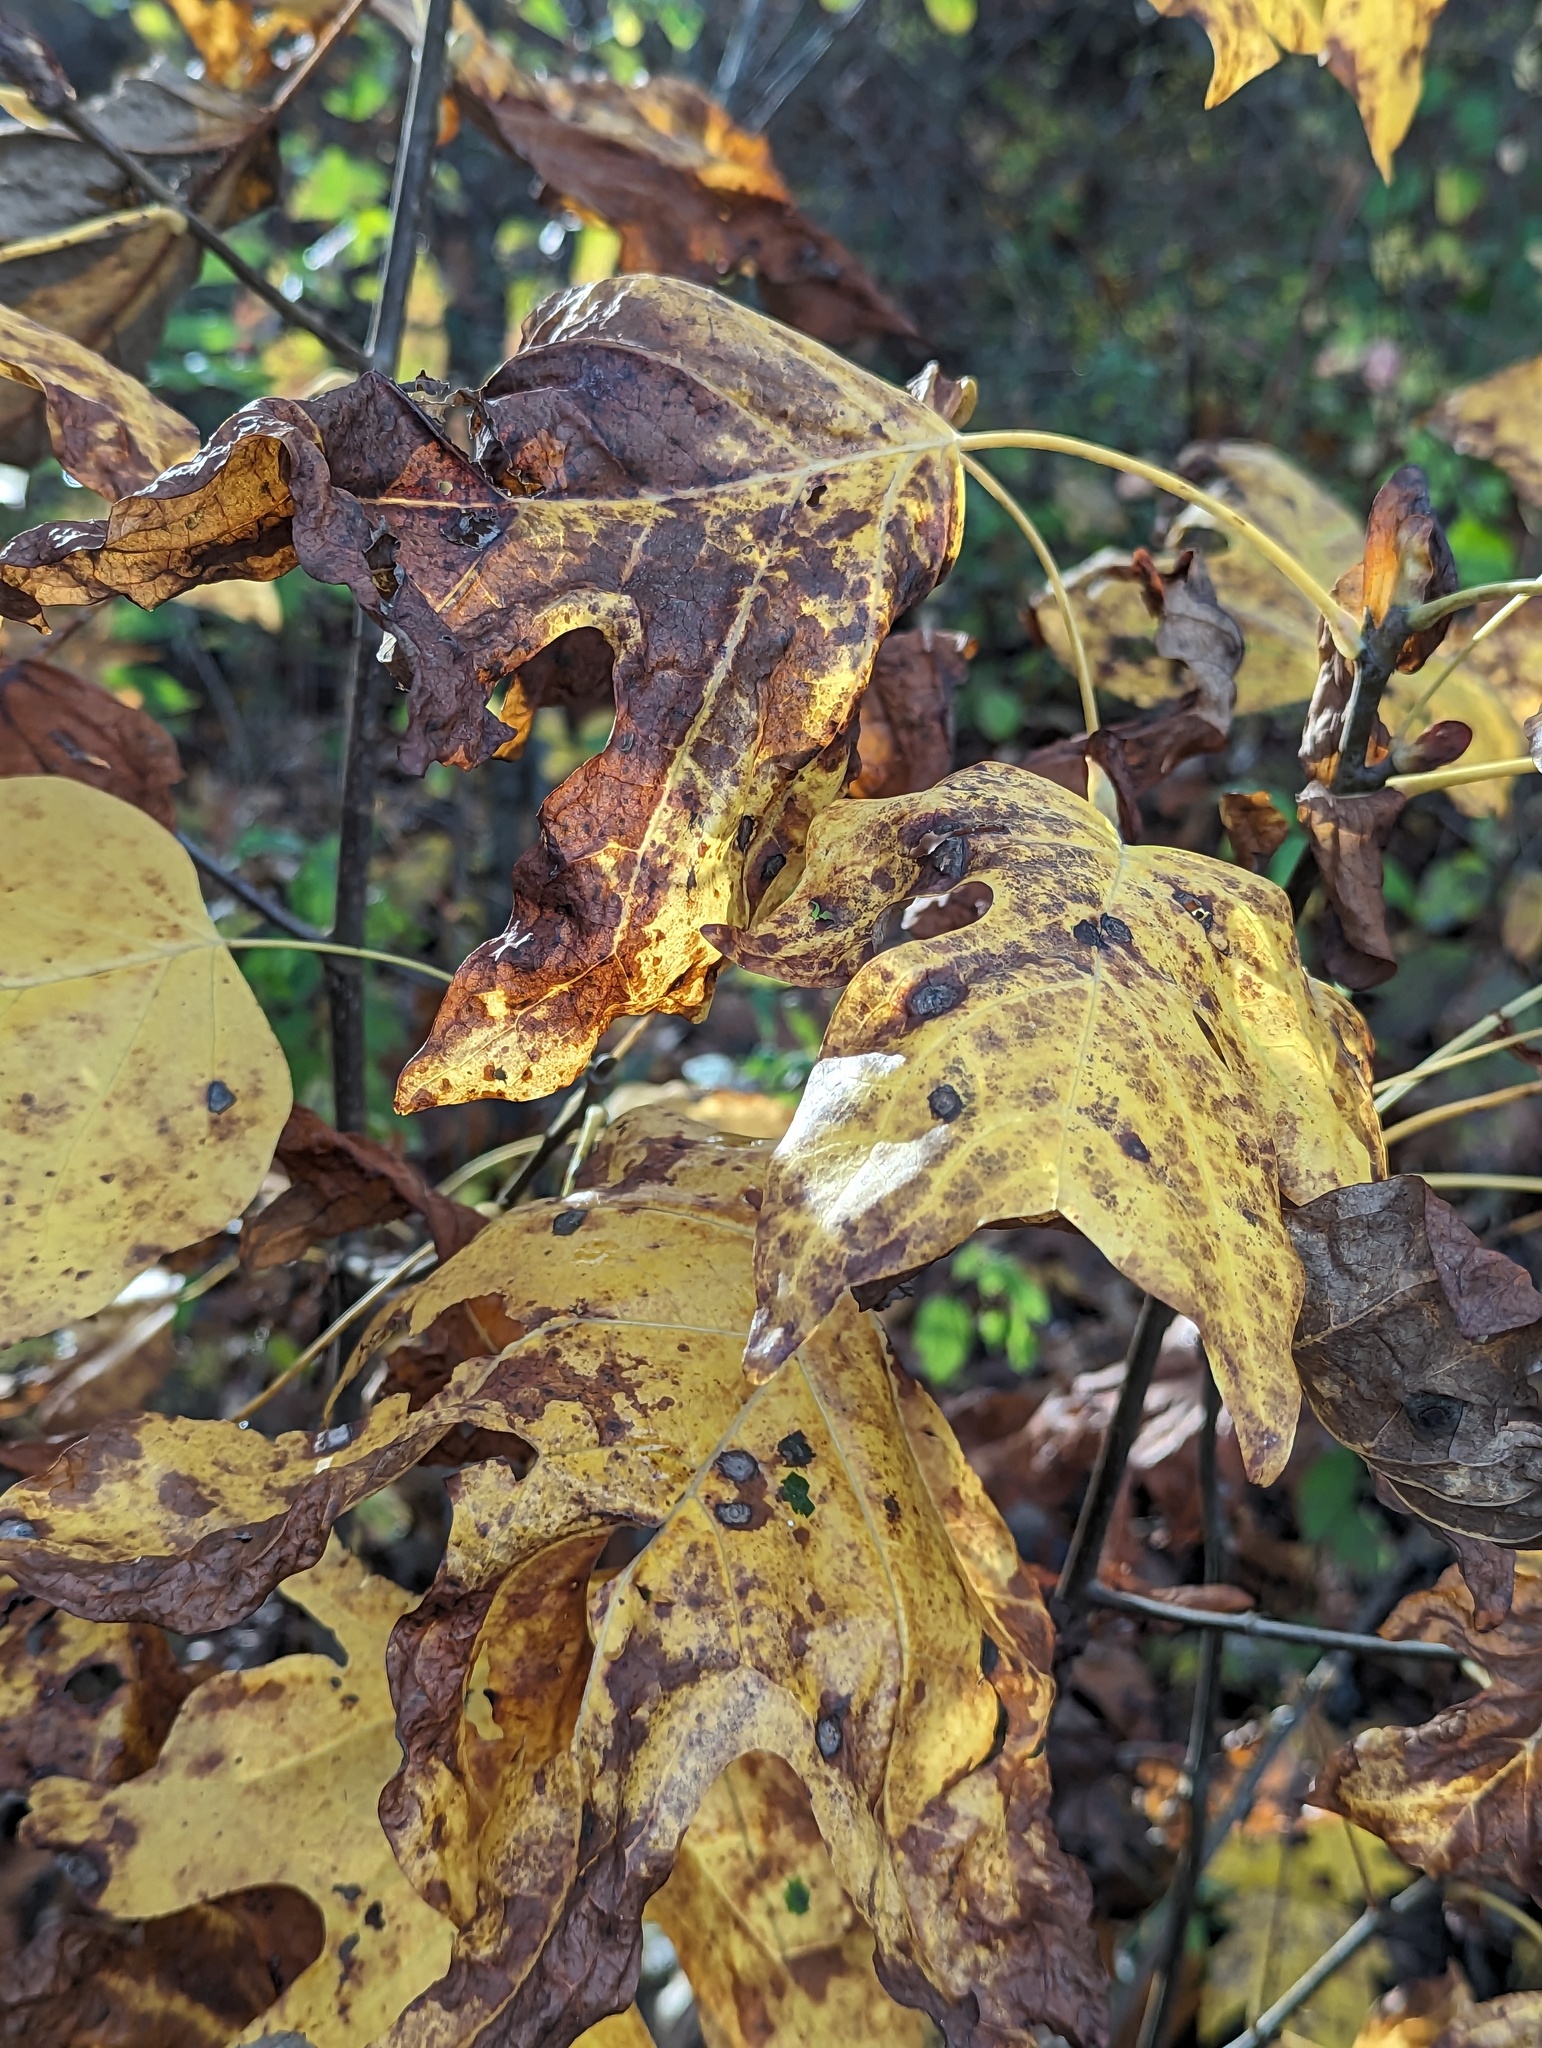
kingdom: Plantae
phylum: Tracheophyta
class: Magnoliopsida
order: Magnoliales
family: Magnoliaceae
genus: Liriodendron
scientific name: Liriodendron tulipifera
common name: Tulip tree
